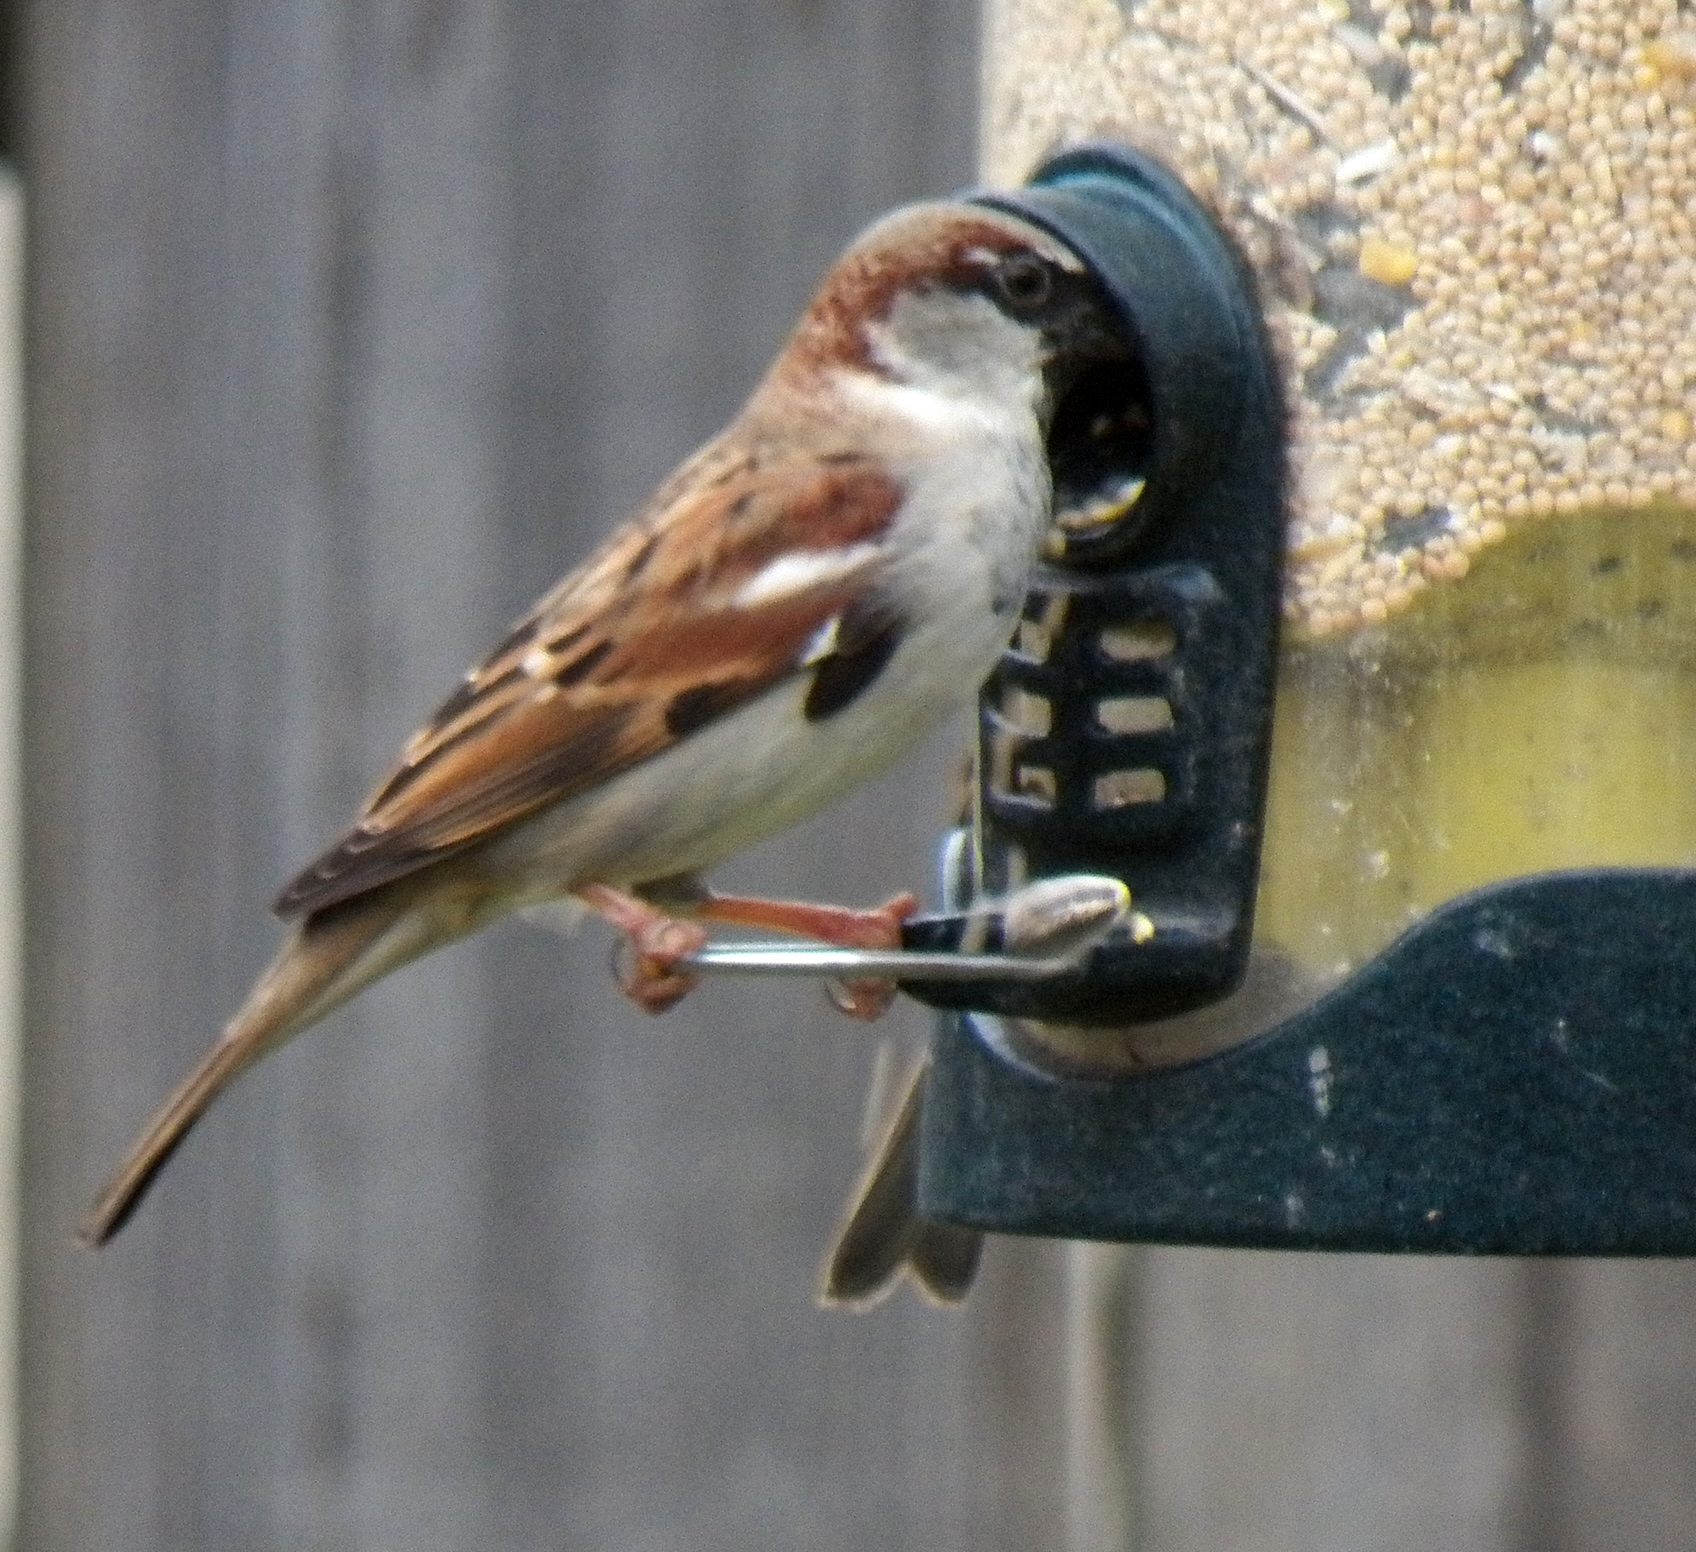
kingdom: Animalia
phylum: Chordata
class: Aves
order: Passeriformes
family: Passeridae
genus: Passer
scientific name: Passer domesticus
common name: House sparrow
